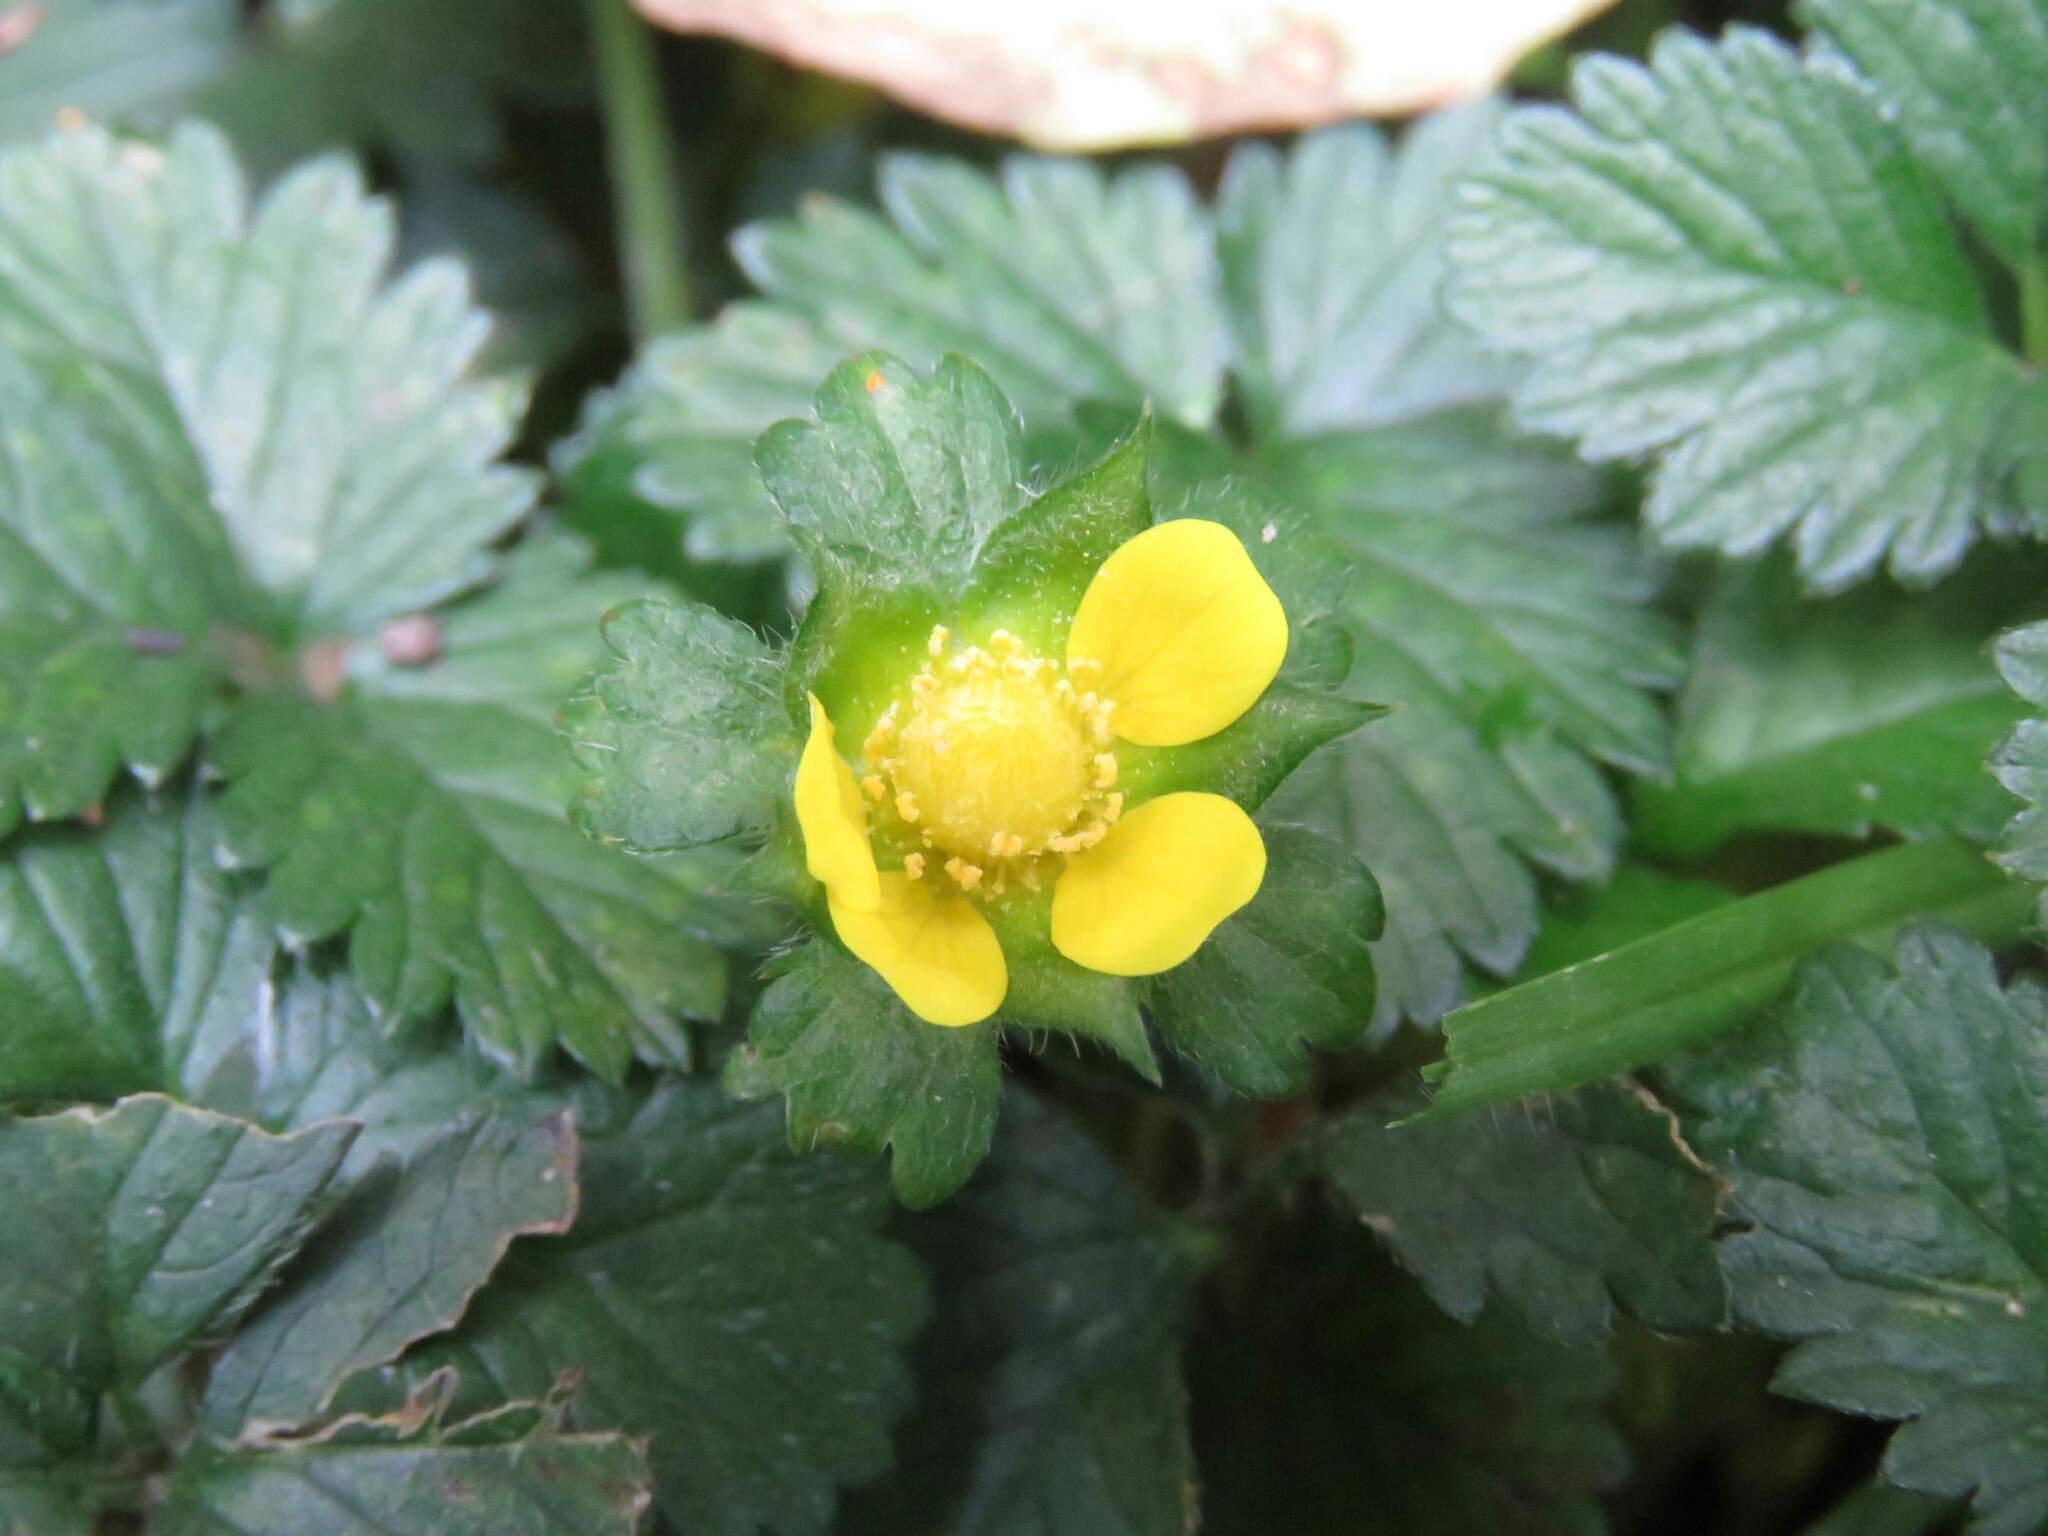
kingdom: Plantae
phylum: Tracheophyta
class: Magnoliopsida
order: Rosales
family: Rosaceae
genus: Potentilla
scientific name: Potentilla indica
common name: Yellow-flowered strawberry
